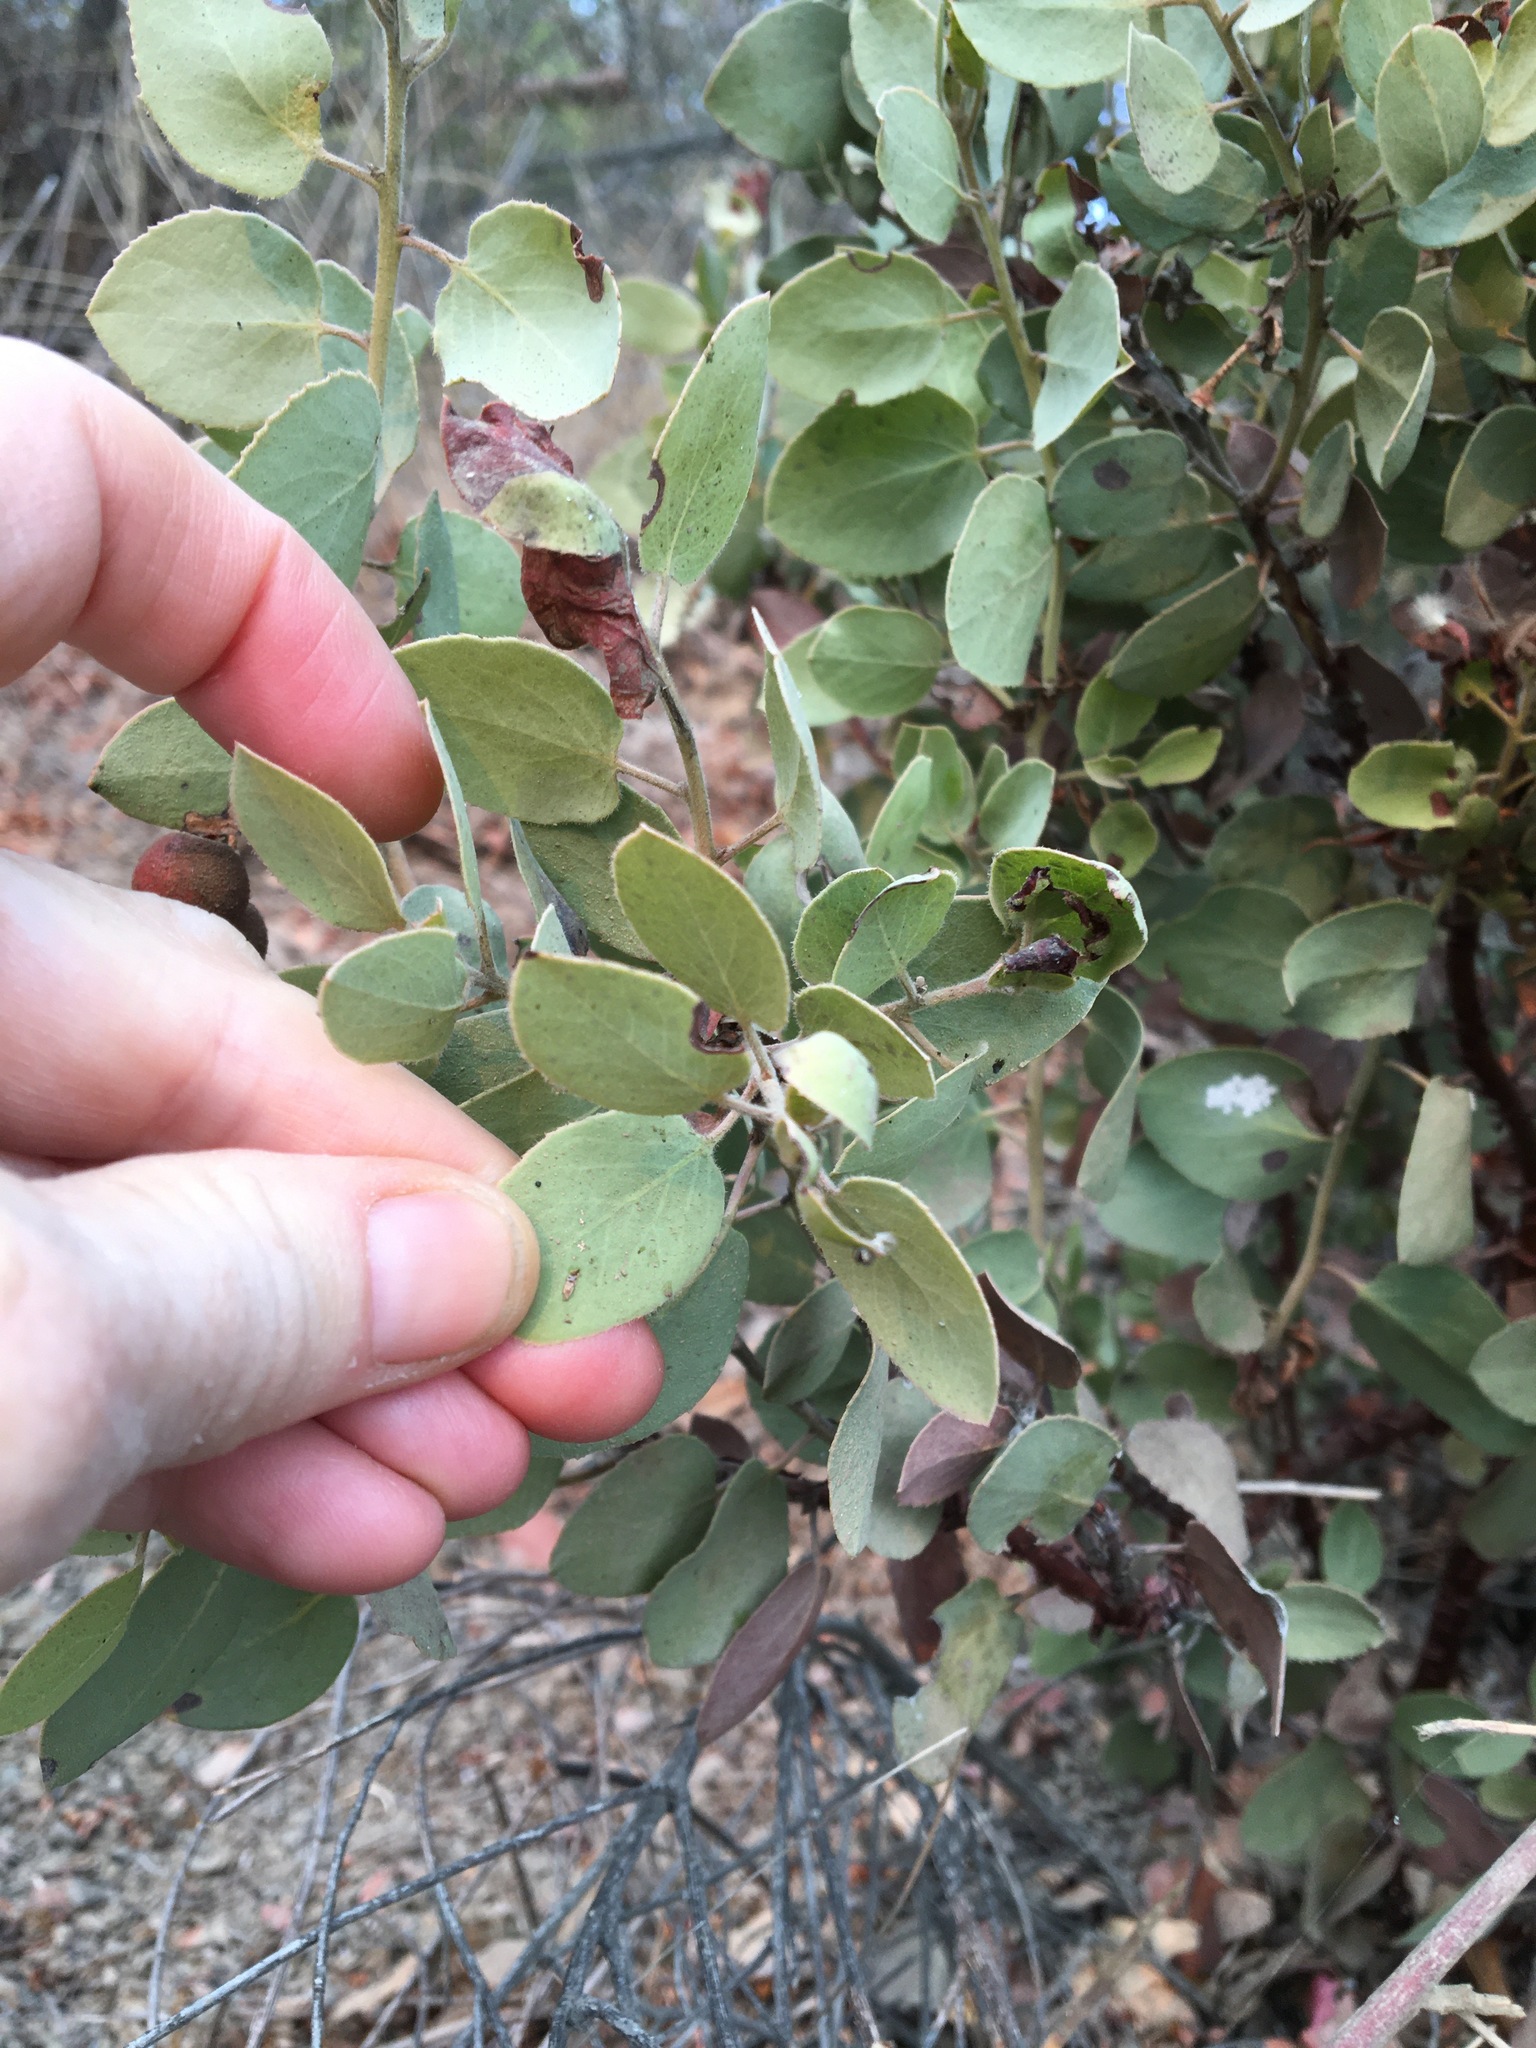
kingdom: Plantae
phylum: Tracheophyta
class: Magnoliopsida
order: Ericales
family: Ericaceae
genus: Arctostaphylos
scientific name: Arctostaphylos glauca
